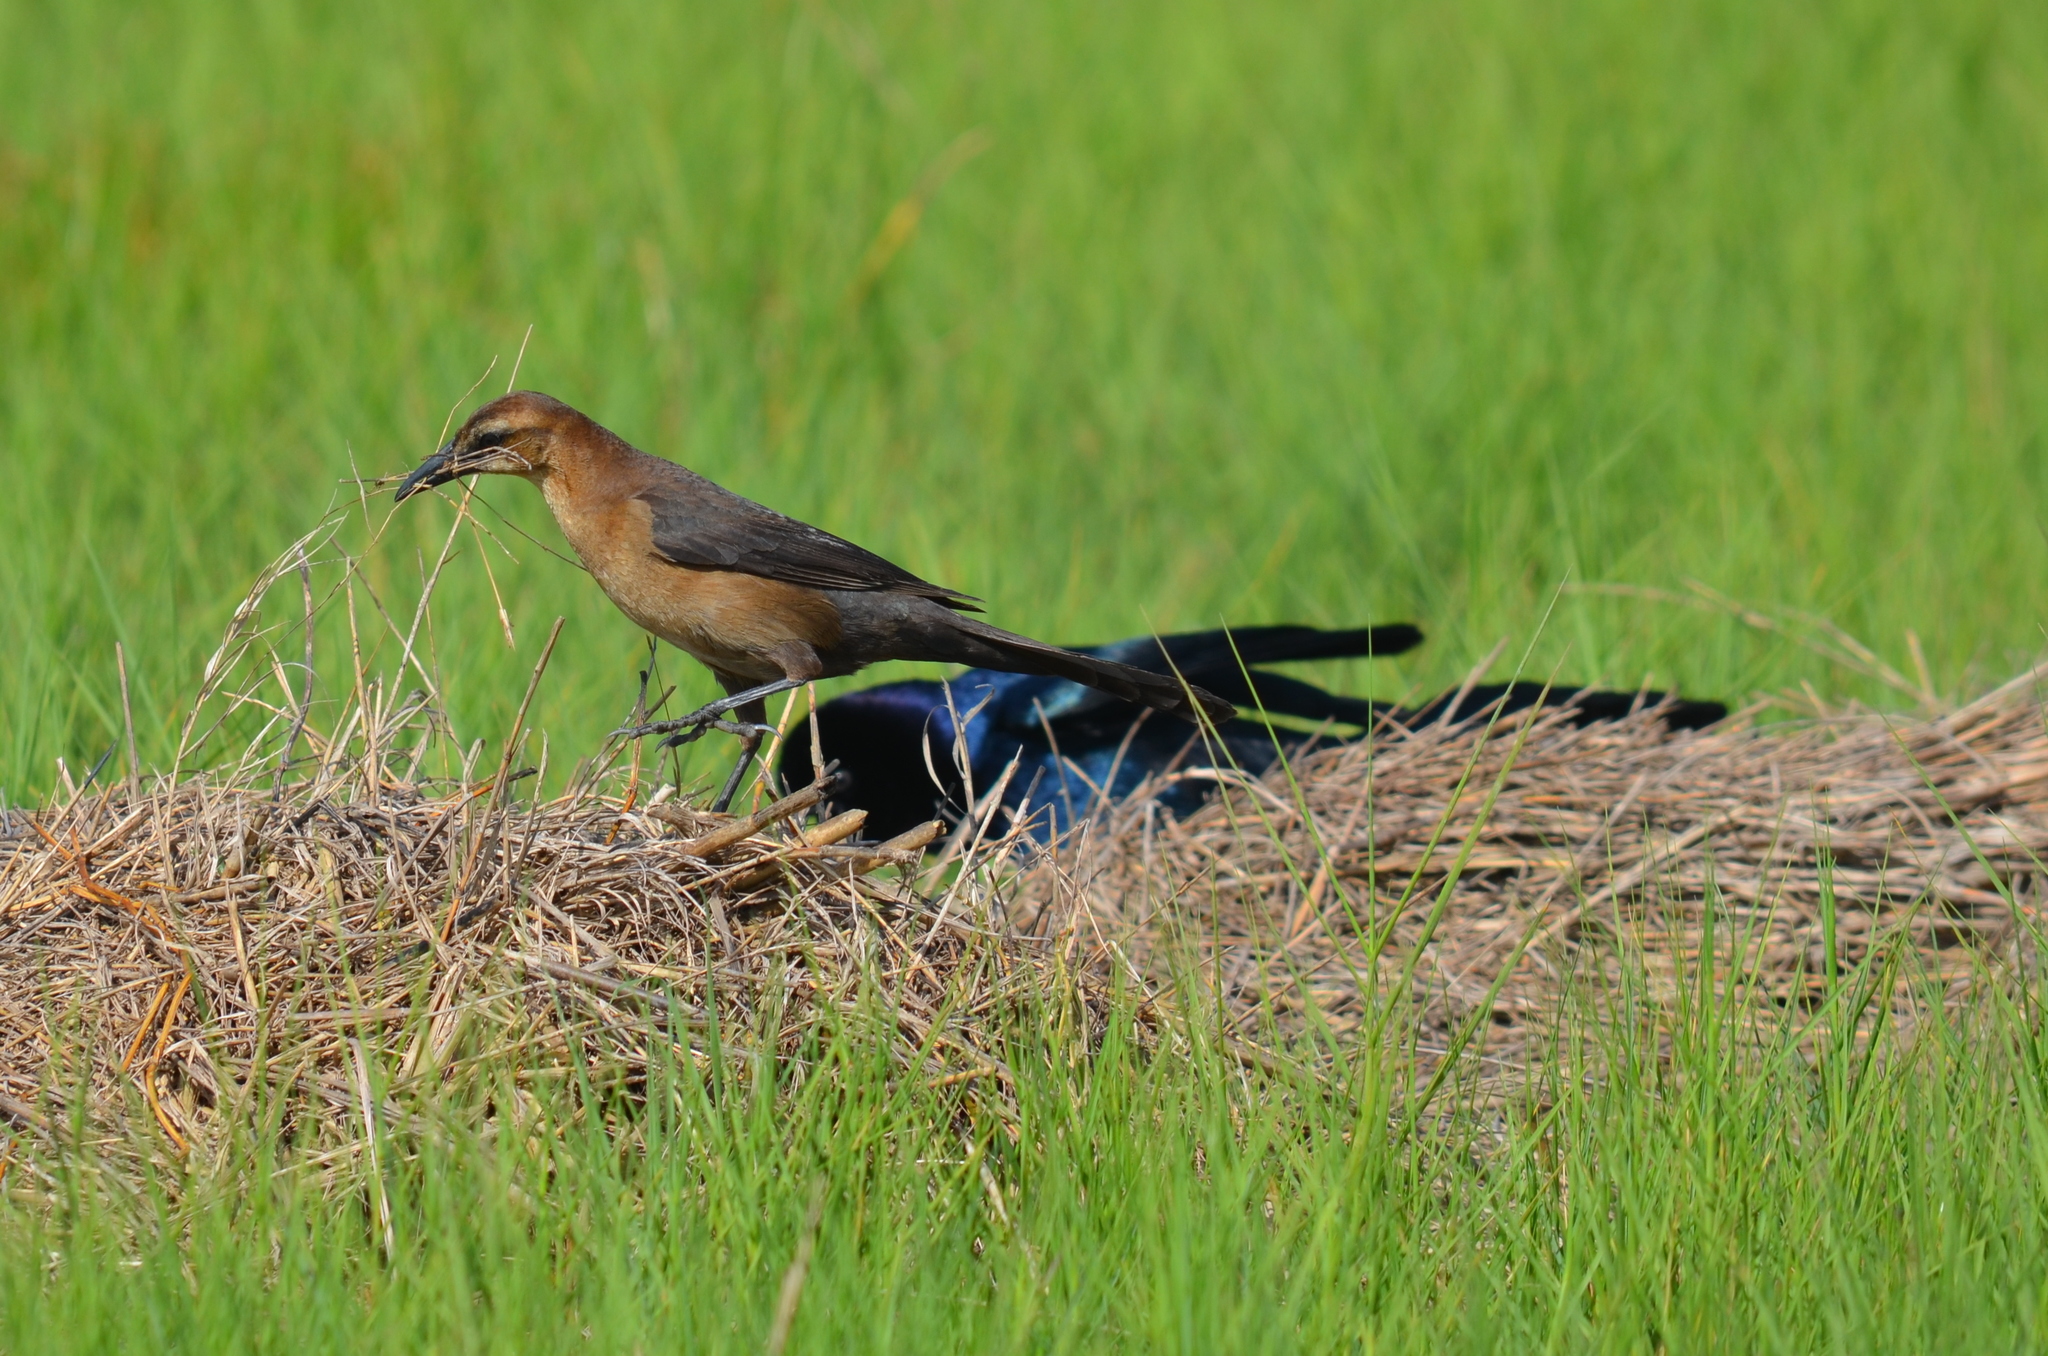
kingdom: Animalia
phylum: Chordata
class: Aves
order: Passeriformes
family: Icteridae
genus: Quiscalus
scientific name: Quiscalus major
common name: Boat-tailed grackle
